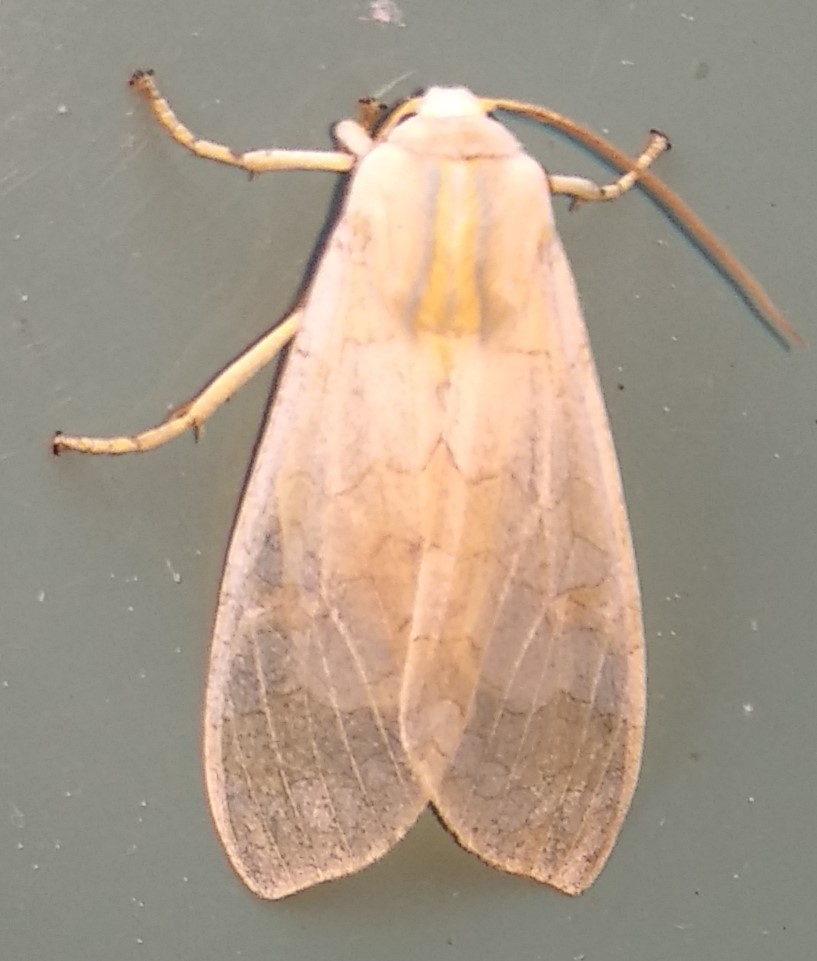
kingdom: Animalia
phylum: Arthropoda
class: Insecta
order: Lepidoptera
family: Erebidae
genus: Halysidota
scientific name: Halysidota tessellaris
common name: Banded tussock moth
